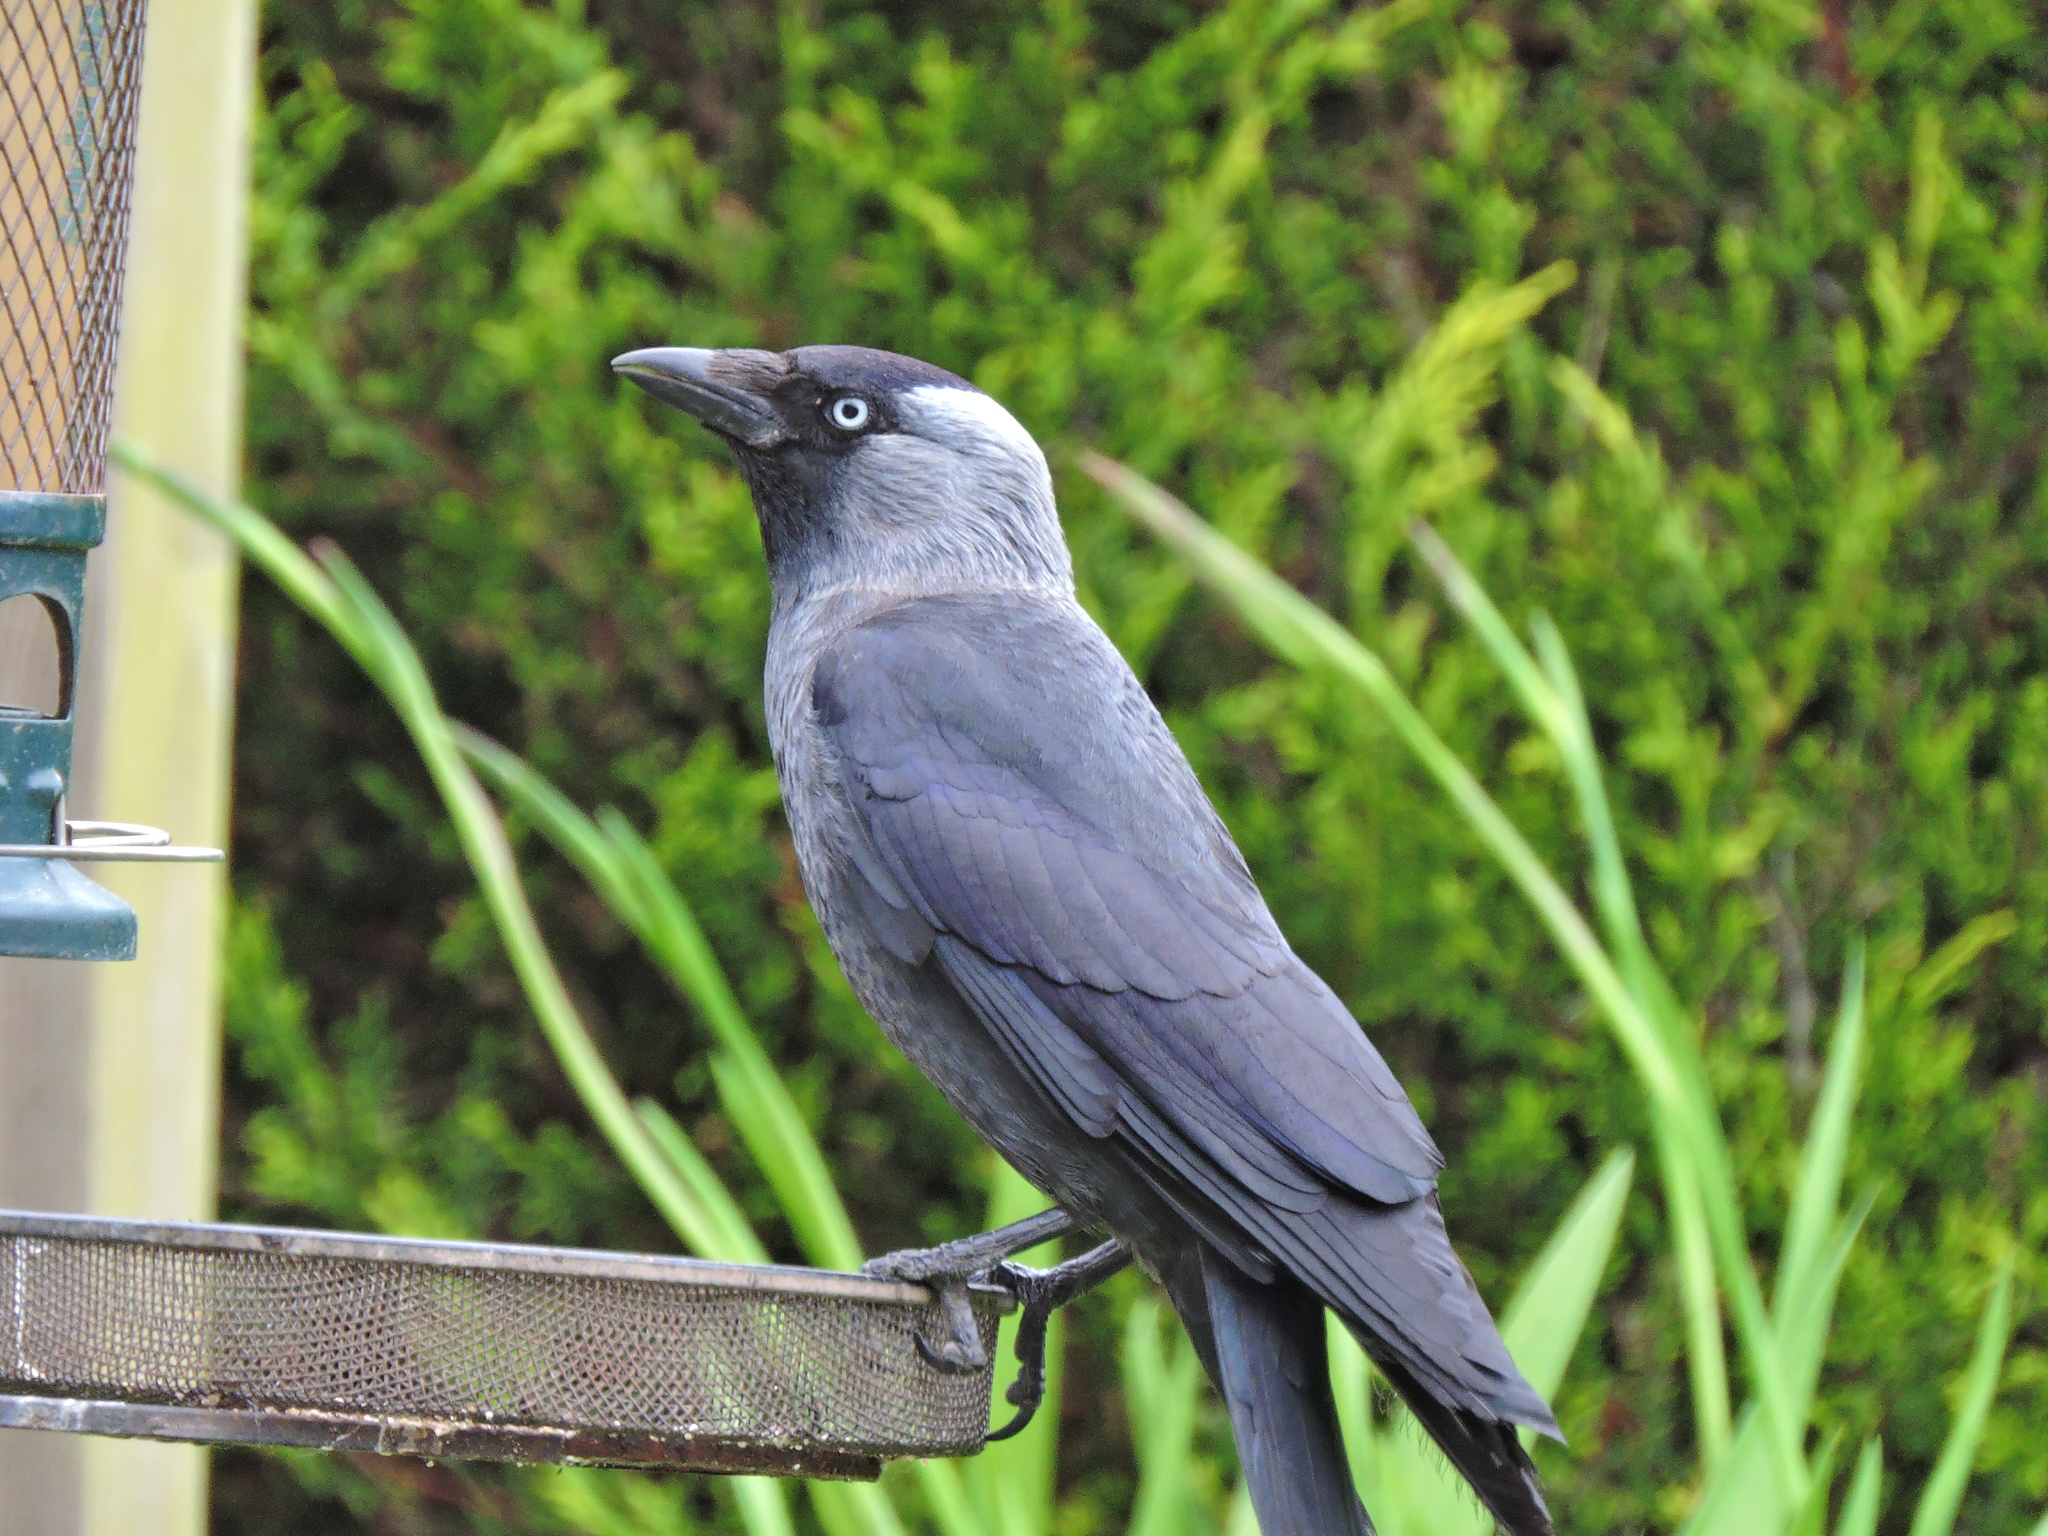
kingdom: Animalia
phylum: Chordata
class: Aves
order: Passeriformes
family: Corvidae
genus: Coloeus
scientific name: Coloeus monedula
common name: Western jackdaw
